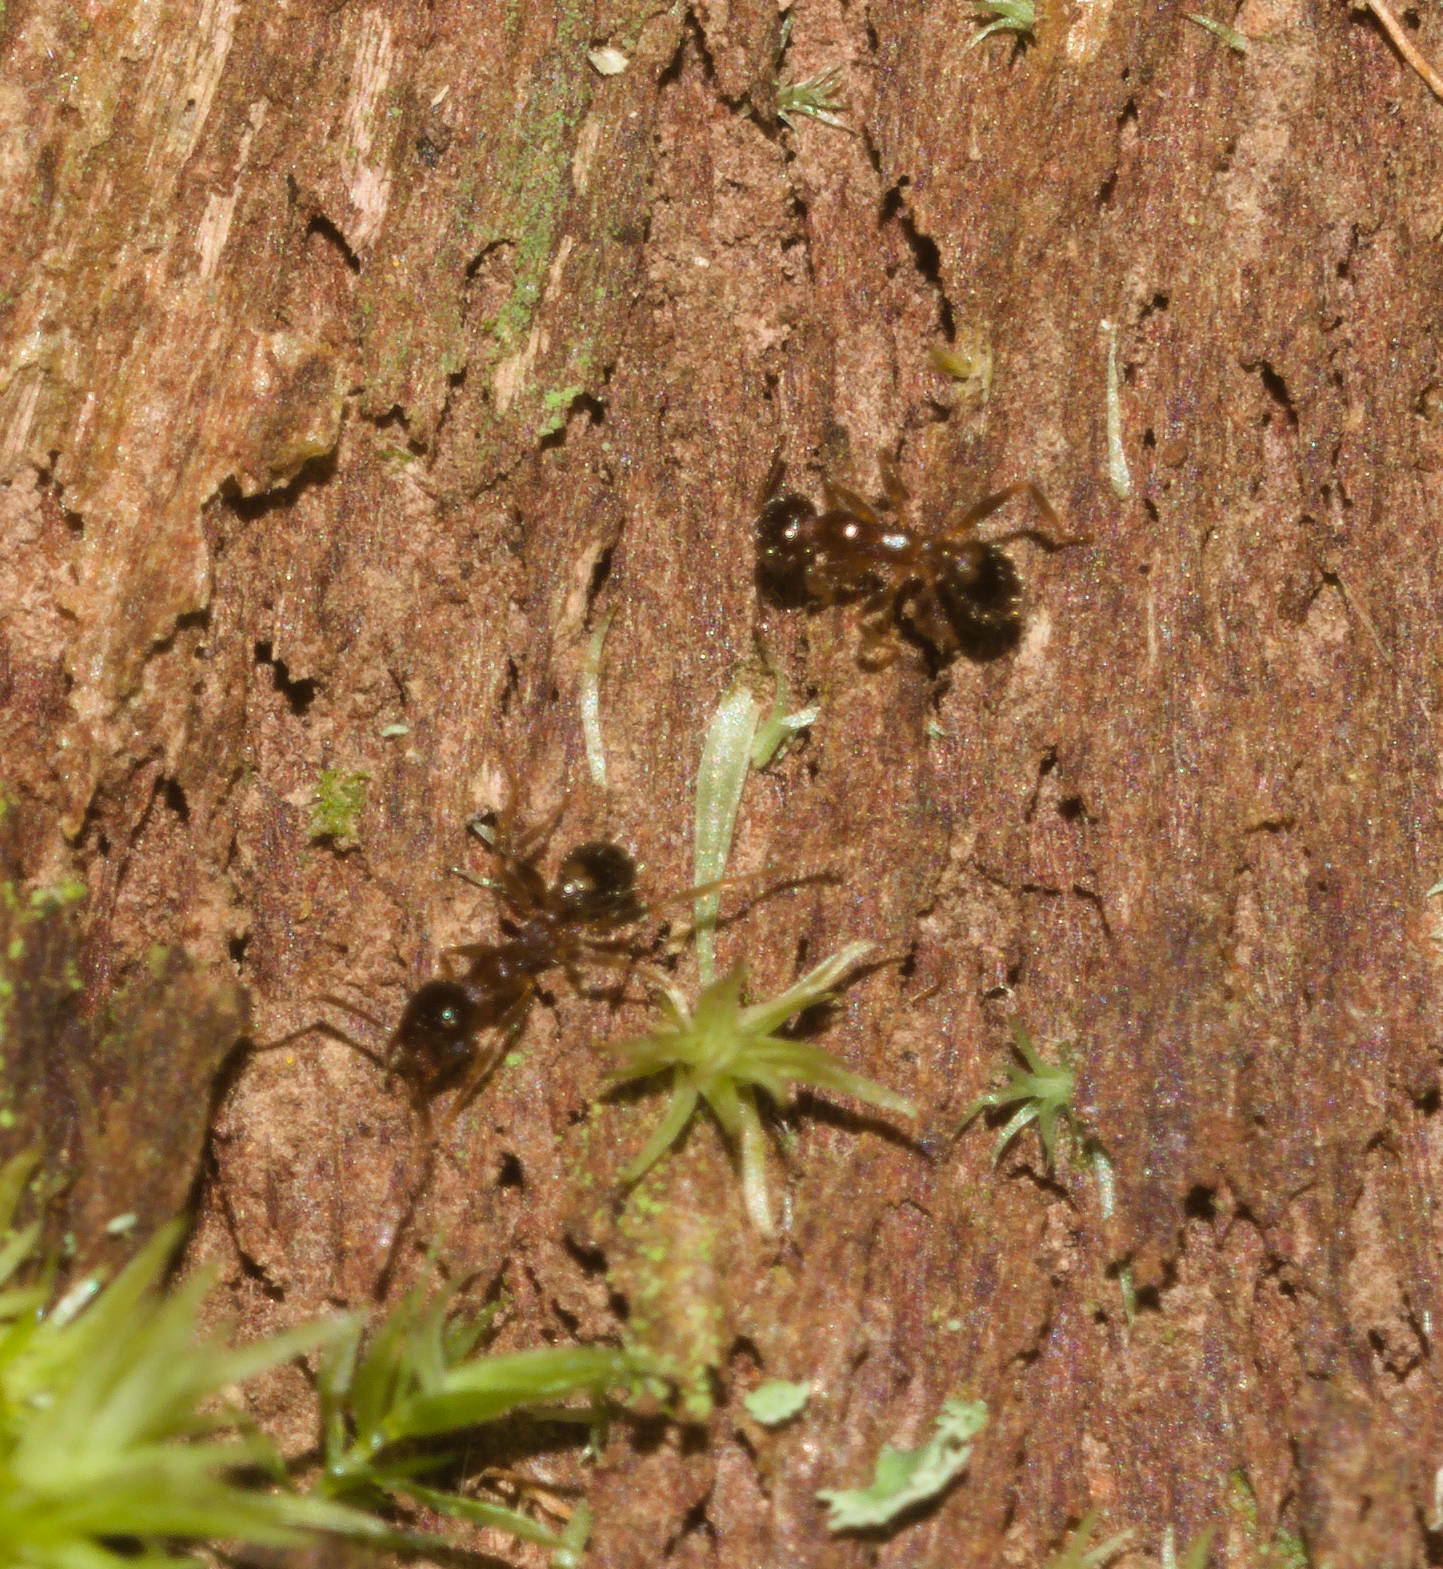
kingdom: Animalia
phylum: Arthropoda
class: Insecta
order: Hymenoptera
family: Formicidae
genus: Pheidole
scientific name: Pheidole megacephala
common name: Bigheaded ant
